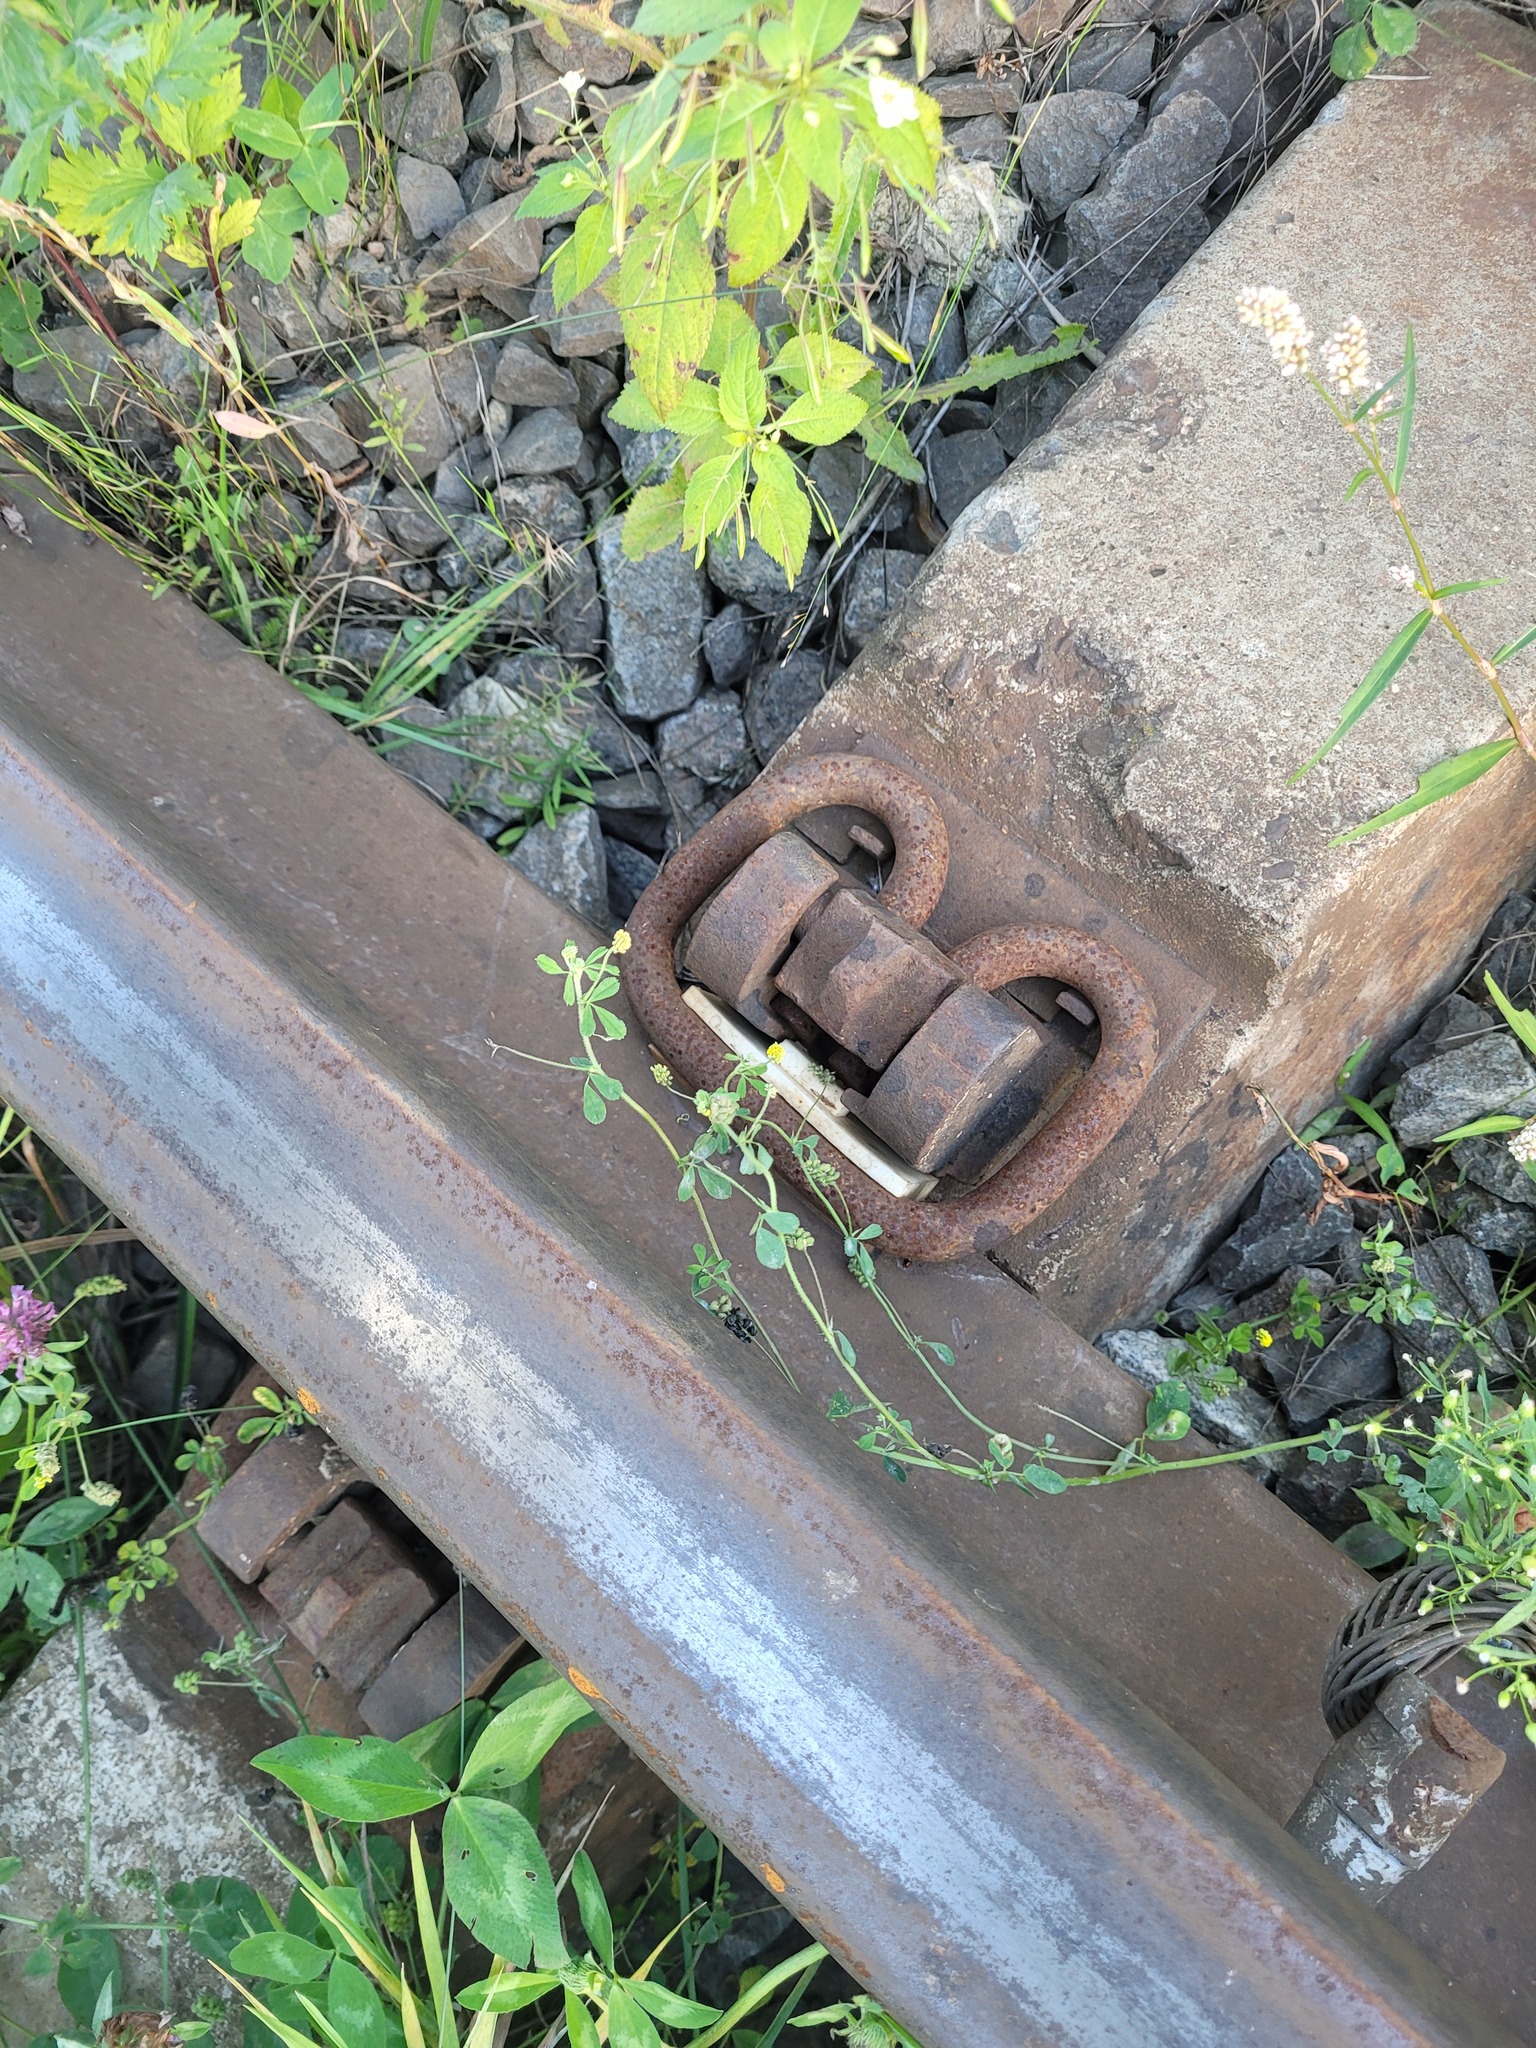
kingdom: Plantae
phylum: Tracheophyta
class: Magnoliopsida
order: Fabales
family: Fabaceae
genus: Medicago
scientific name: Medicago lupulina
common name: Black medick
